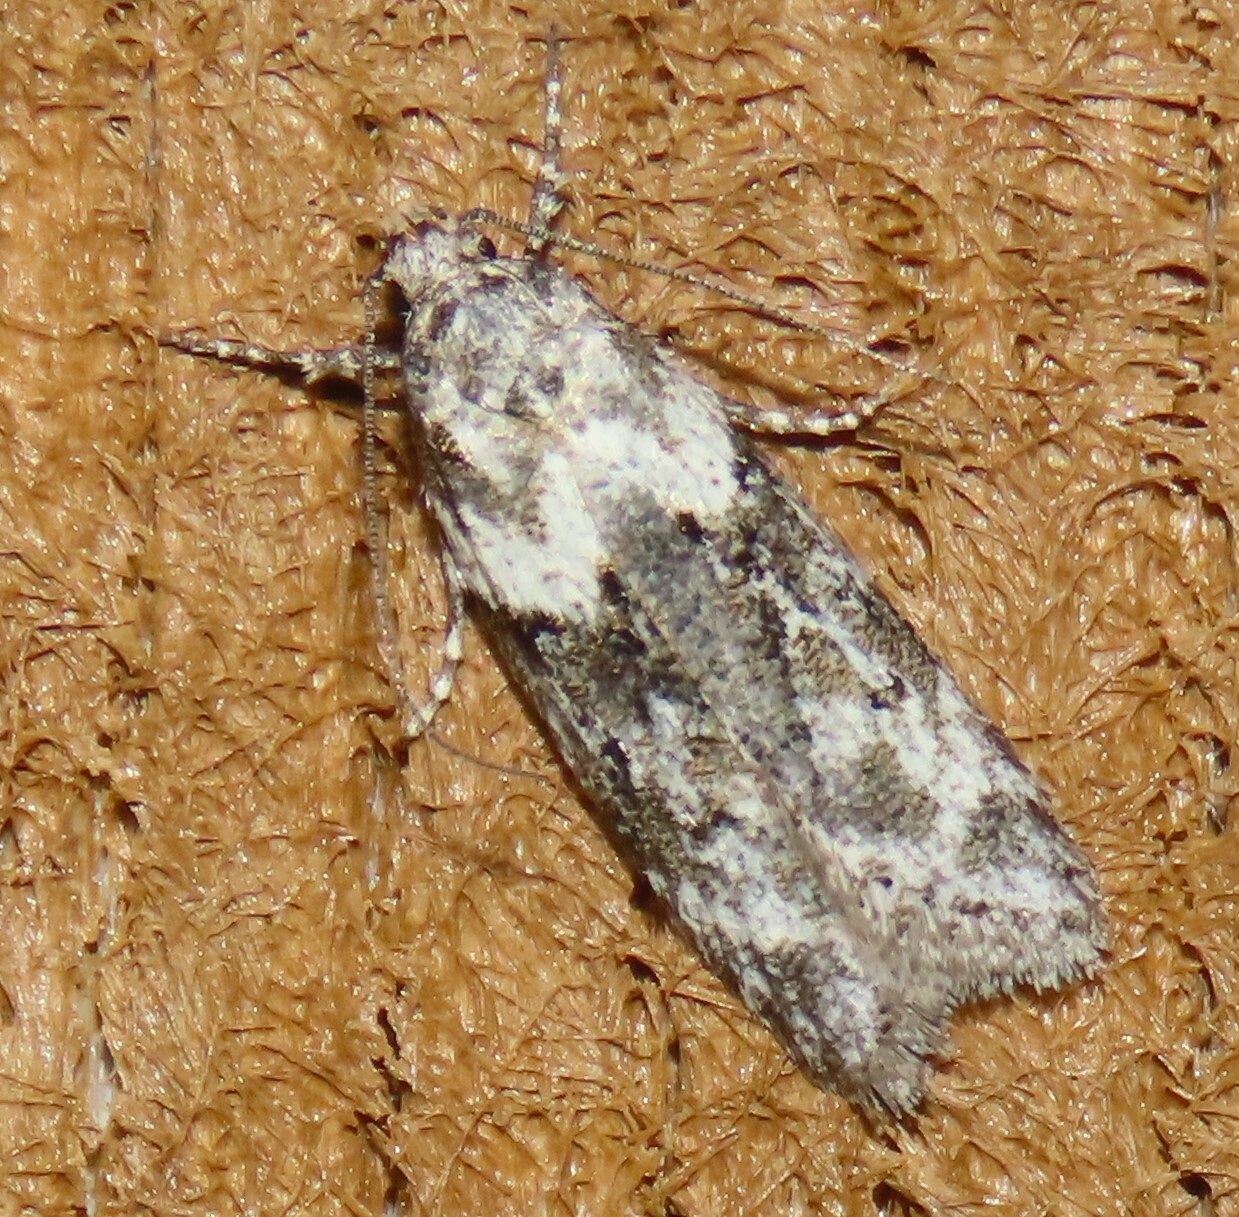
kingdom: Animalia
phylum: Arthropoda
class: Insecta
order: Lepidoptera
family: Oecophoridae
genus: Izatha
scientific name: Izatha convulsella
